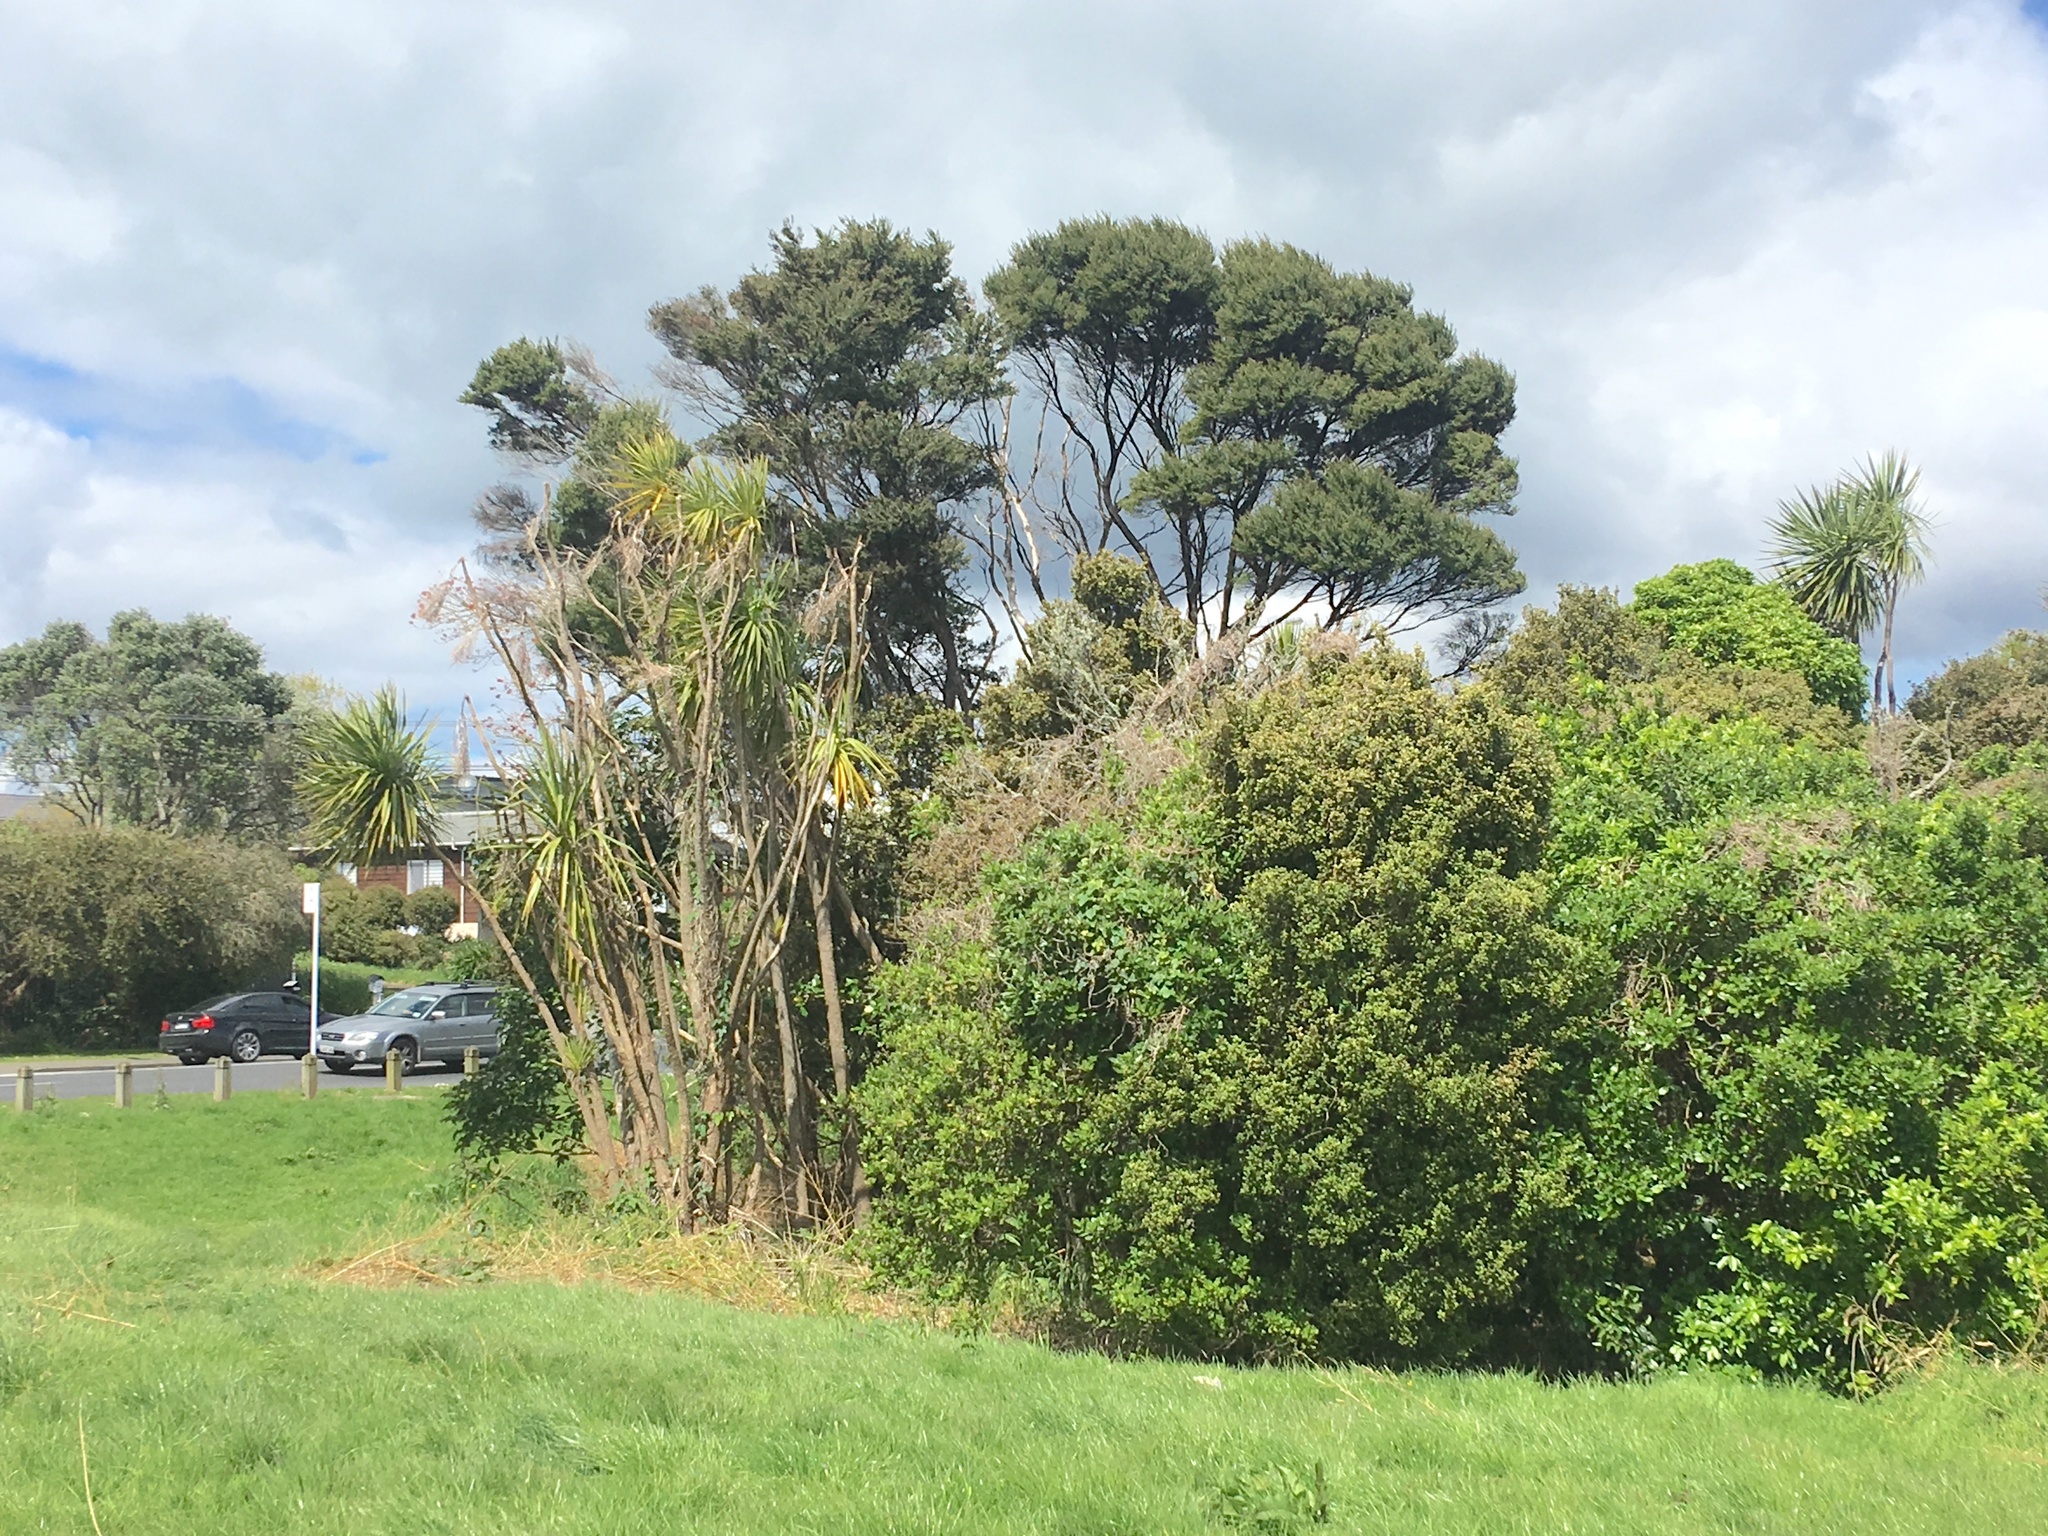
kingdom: Plantae
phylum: Tracheophyta
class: Magnoliopsida
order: Myrtales
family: Myrtaceae
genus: Kunzea
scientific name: Kunzea robusta
